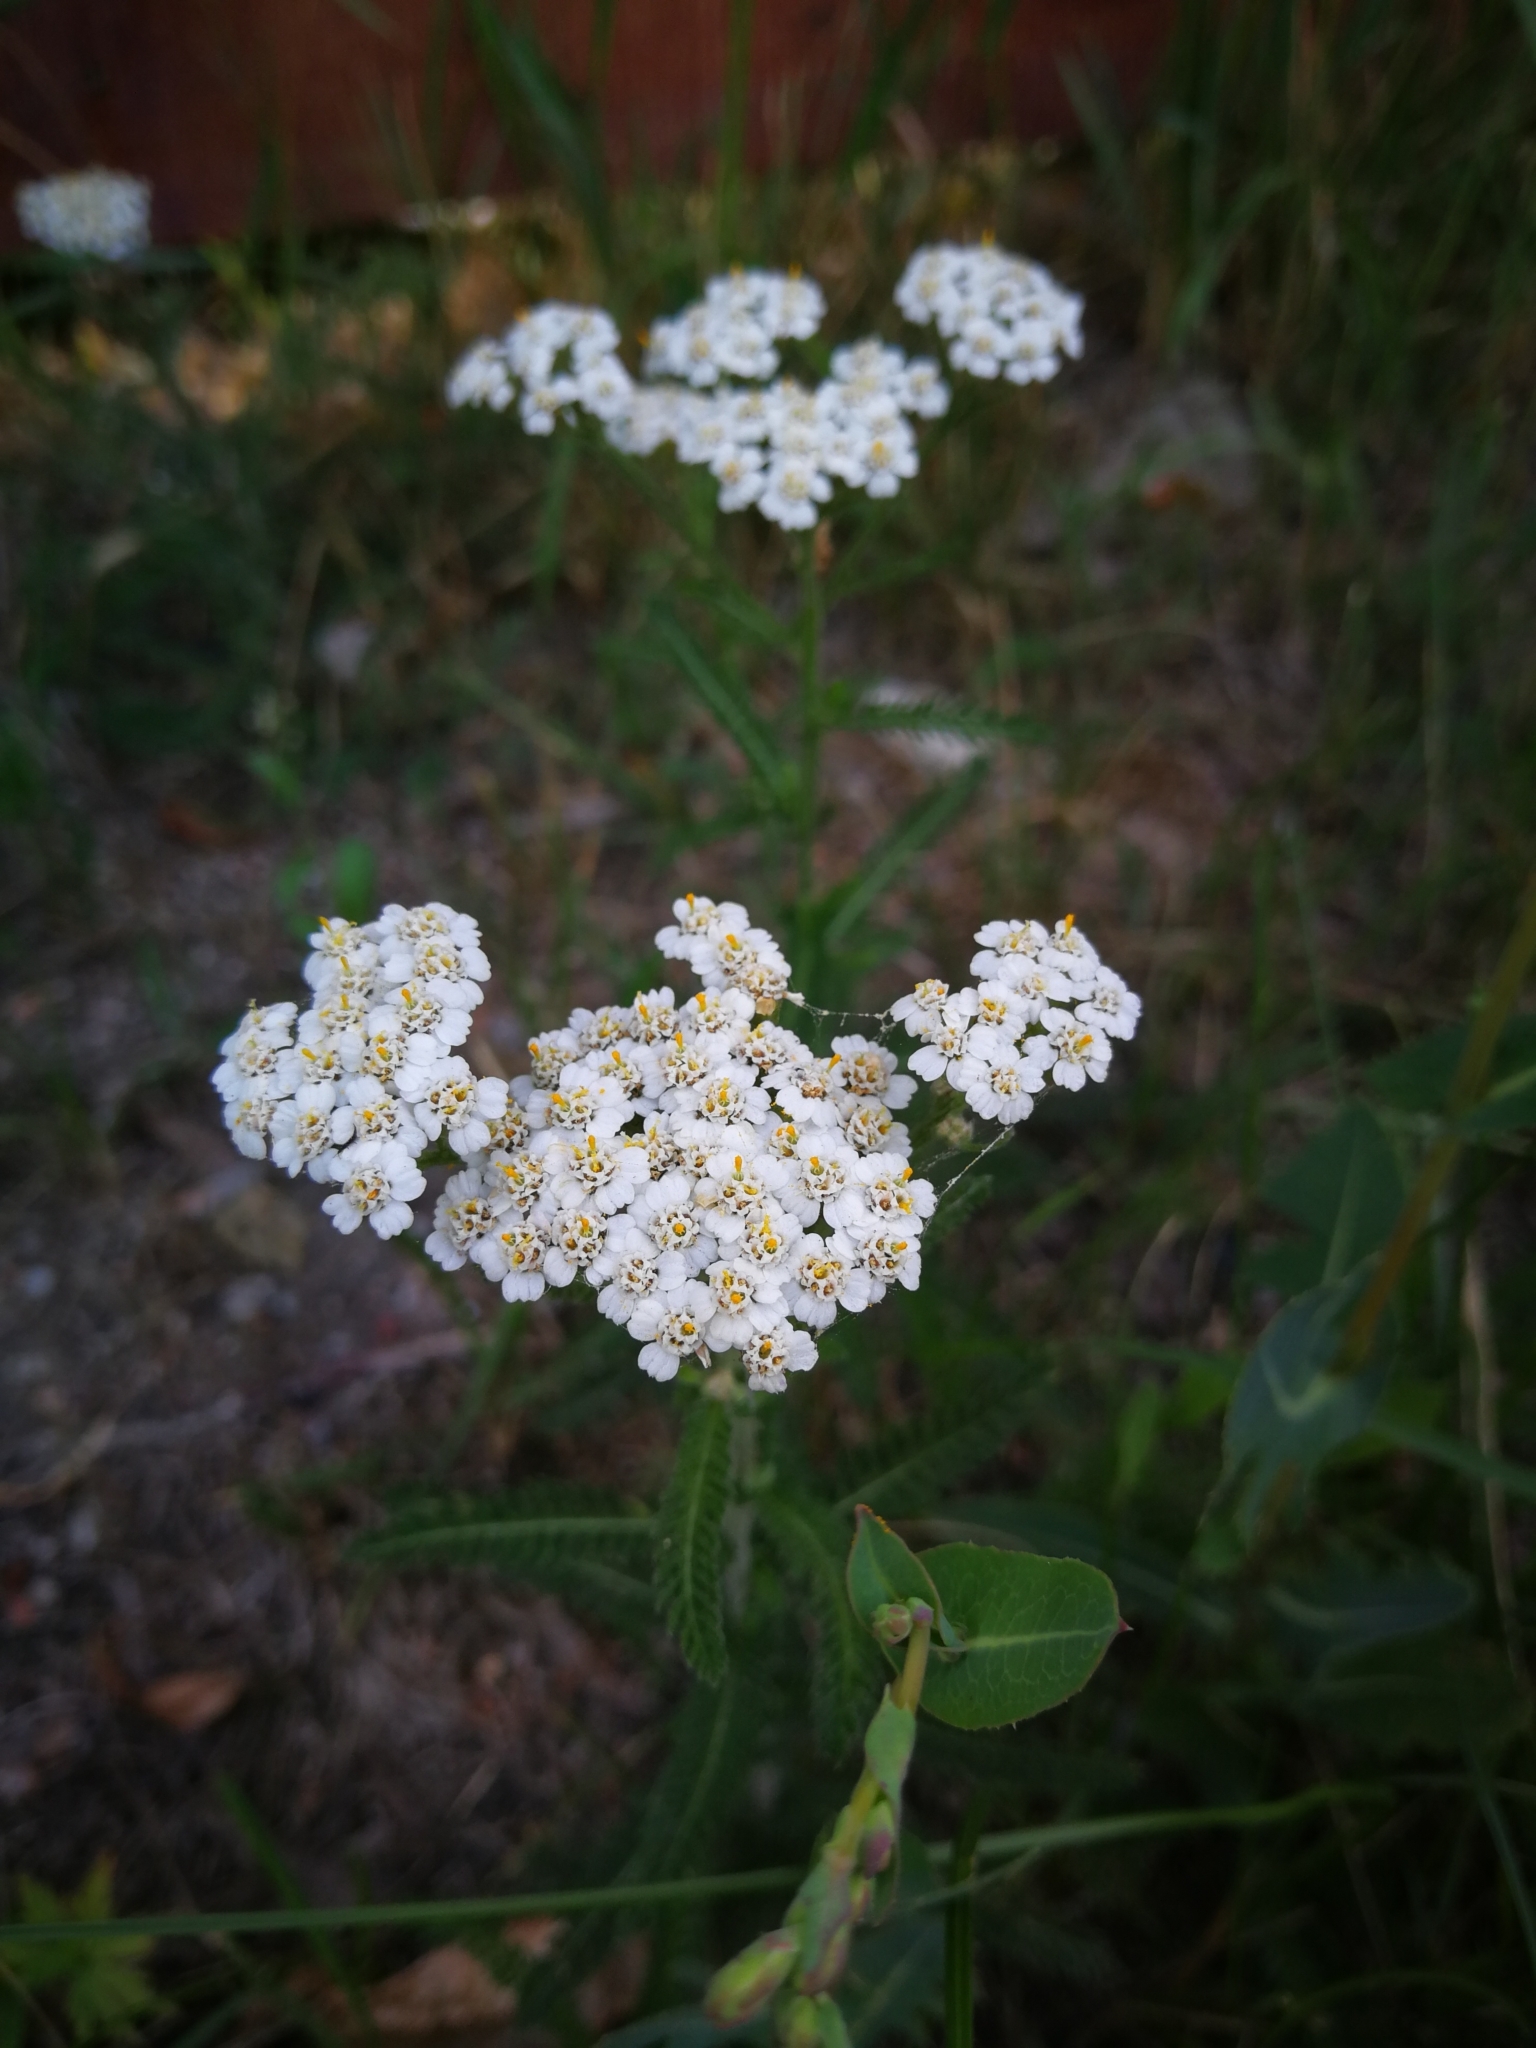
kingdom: Plantae
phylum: Tracheophyta
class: Magnoliopsida
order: Asterales
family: Asteraceae
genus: Achillea
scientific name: Achillea millefolium
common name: Yarrow
